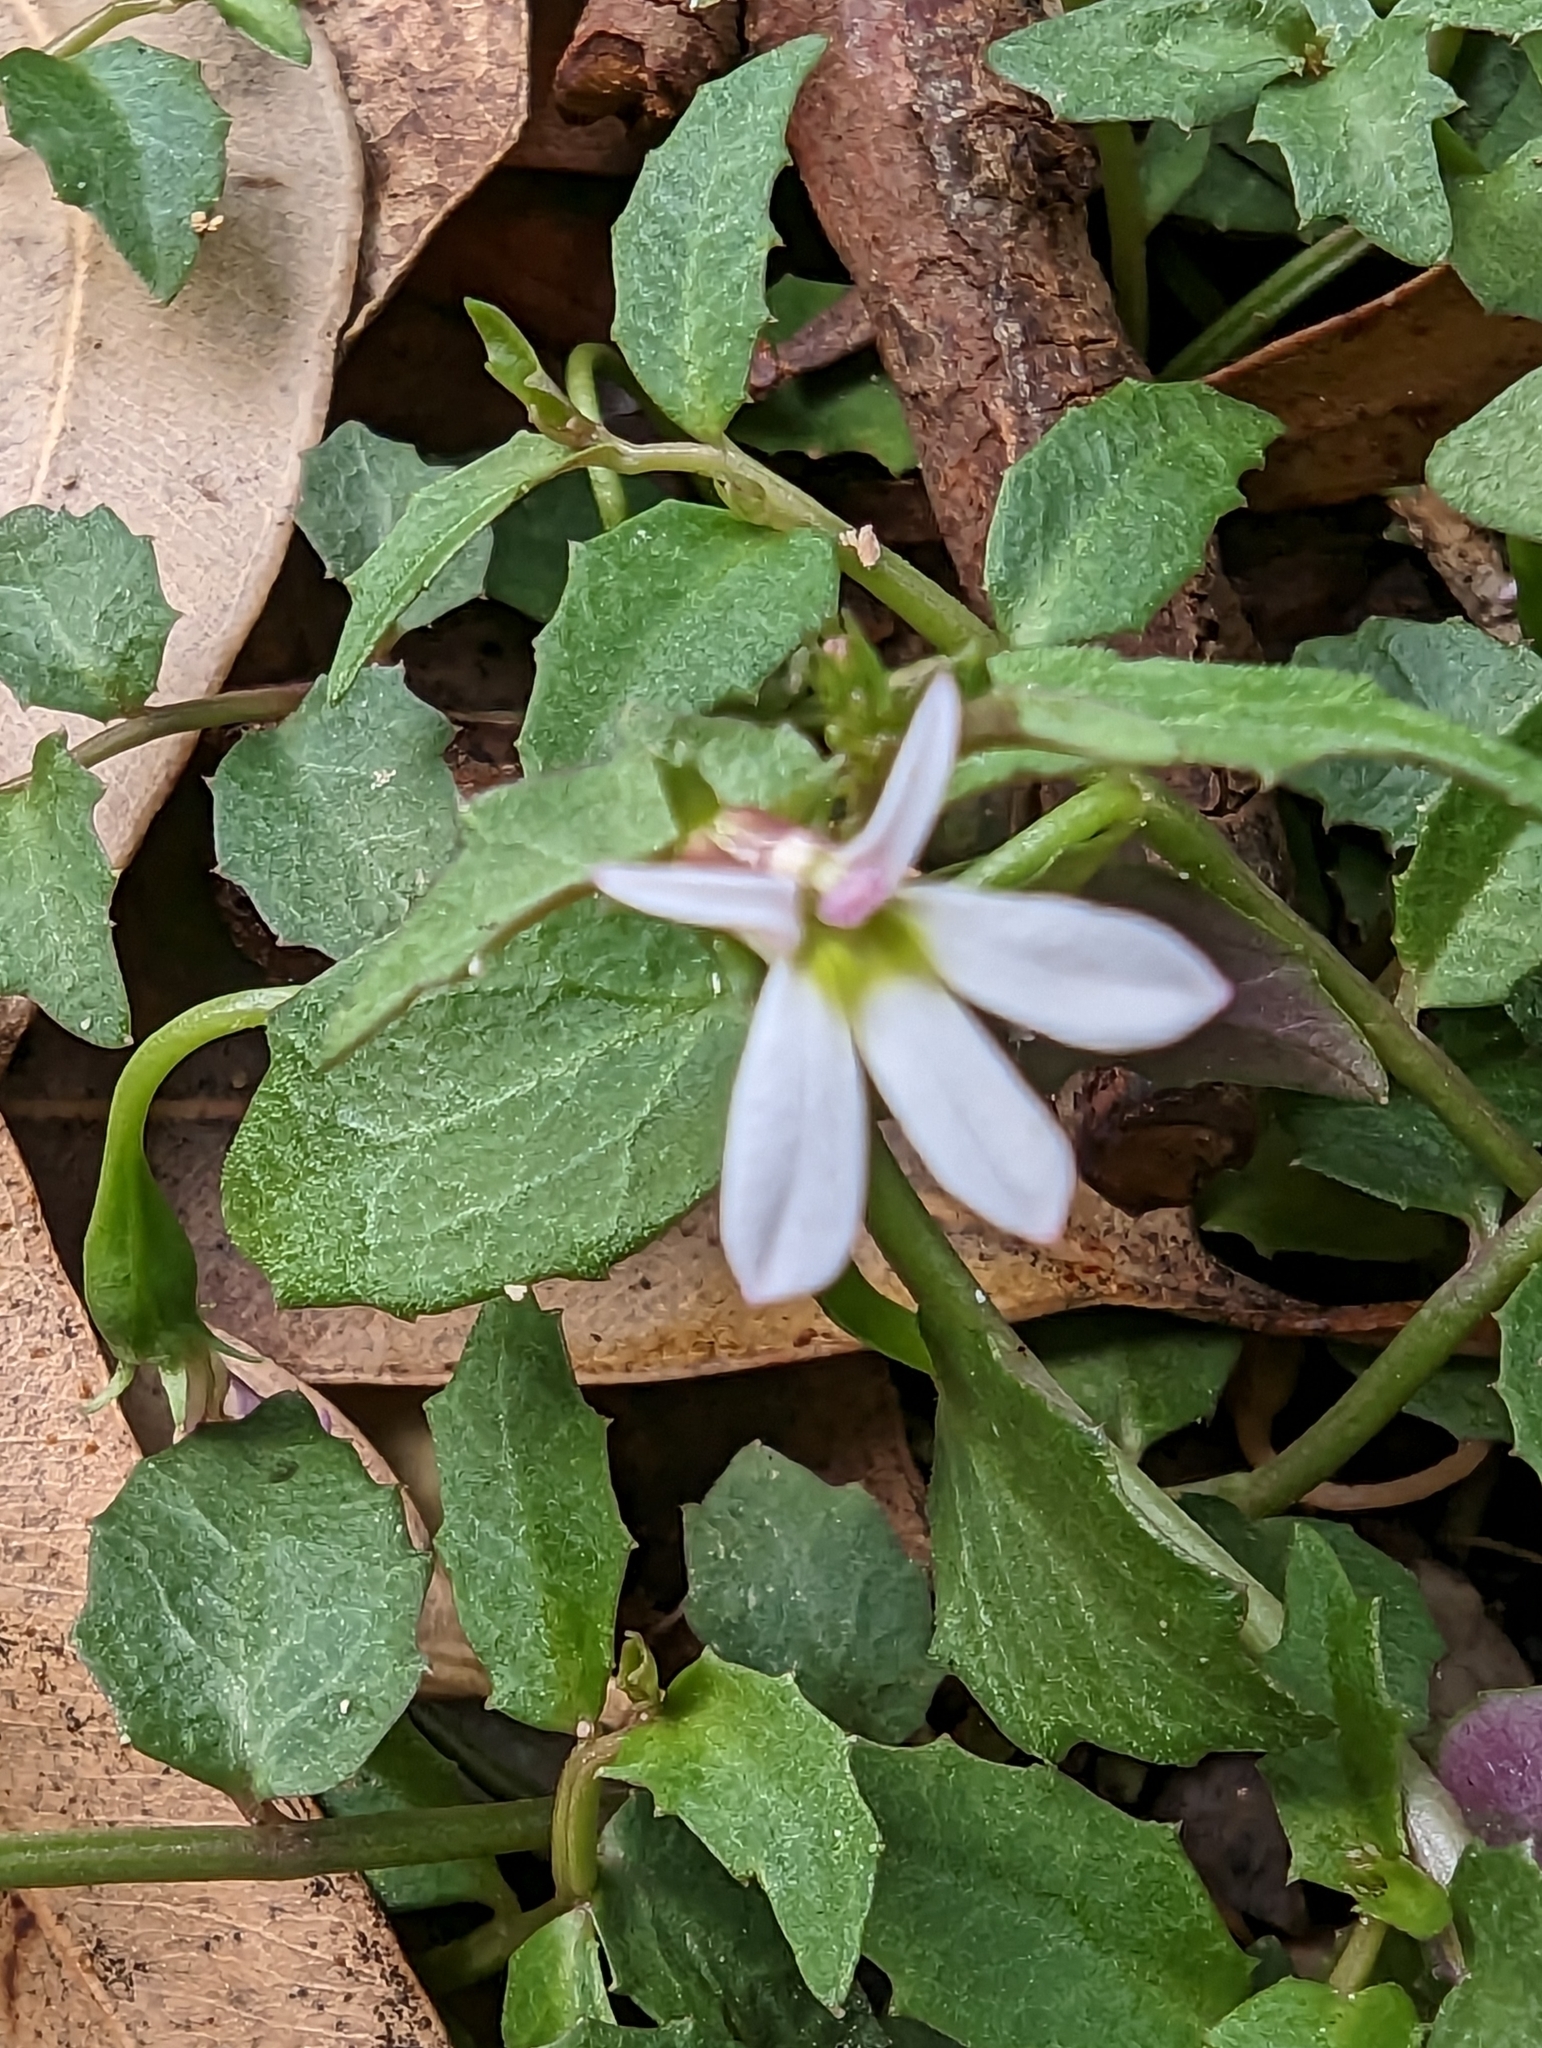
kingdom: Plantae
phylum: Tracheophyta
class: Magnoliopsida
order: Asterales
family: Campanulaceae
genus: Lobelia
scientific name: Lobelia purpurascens
